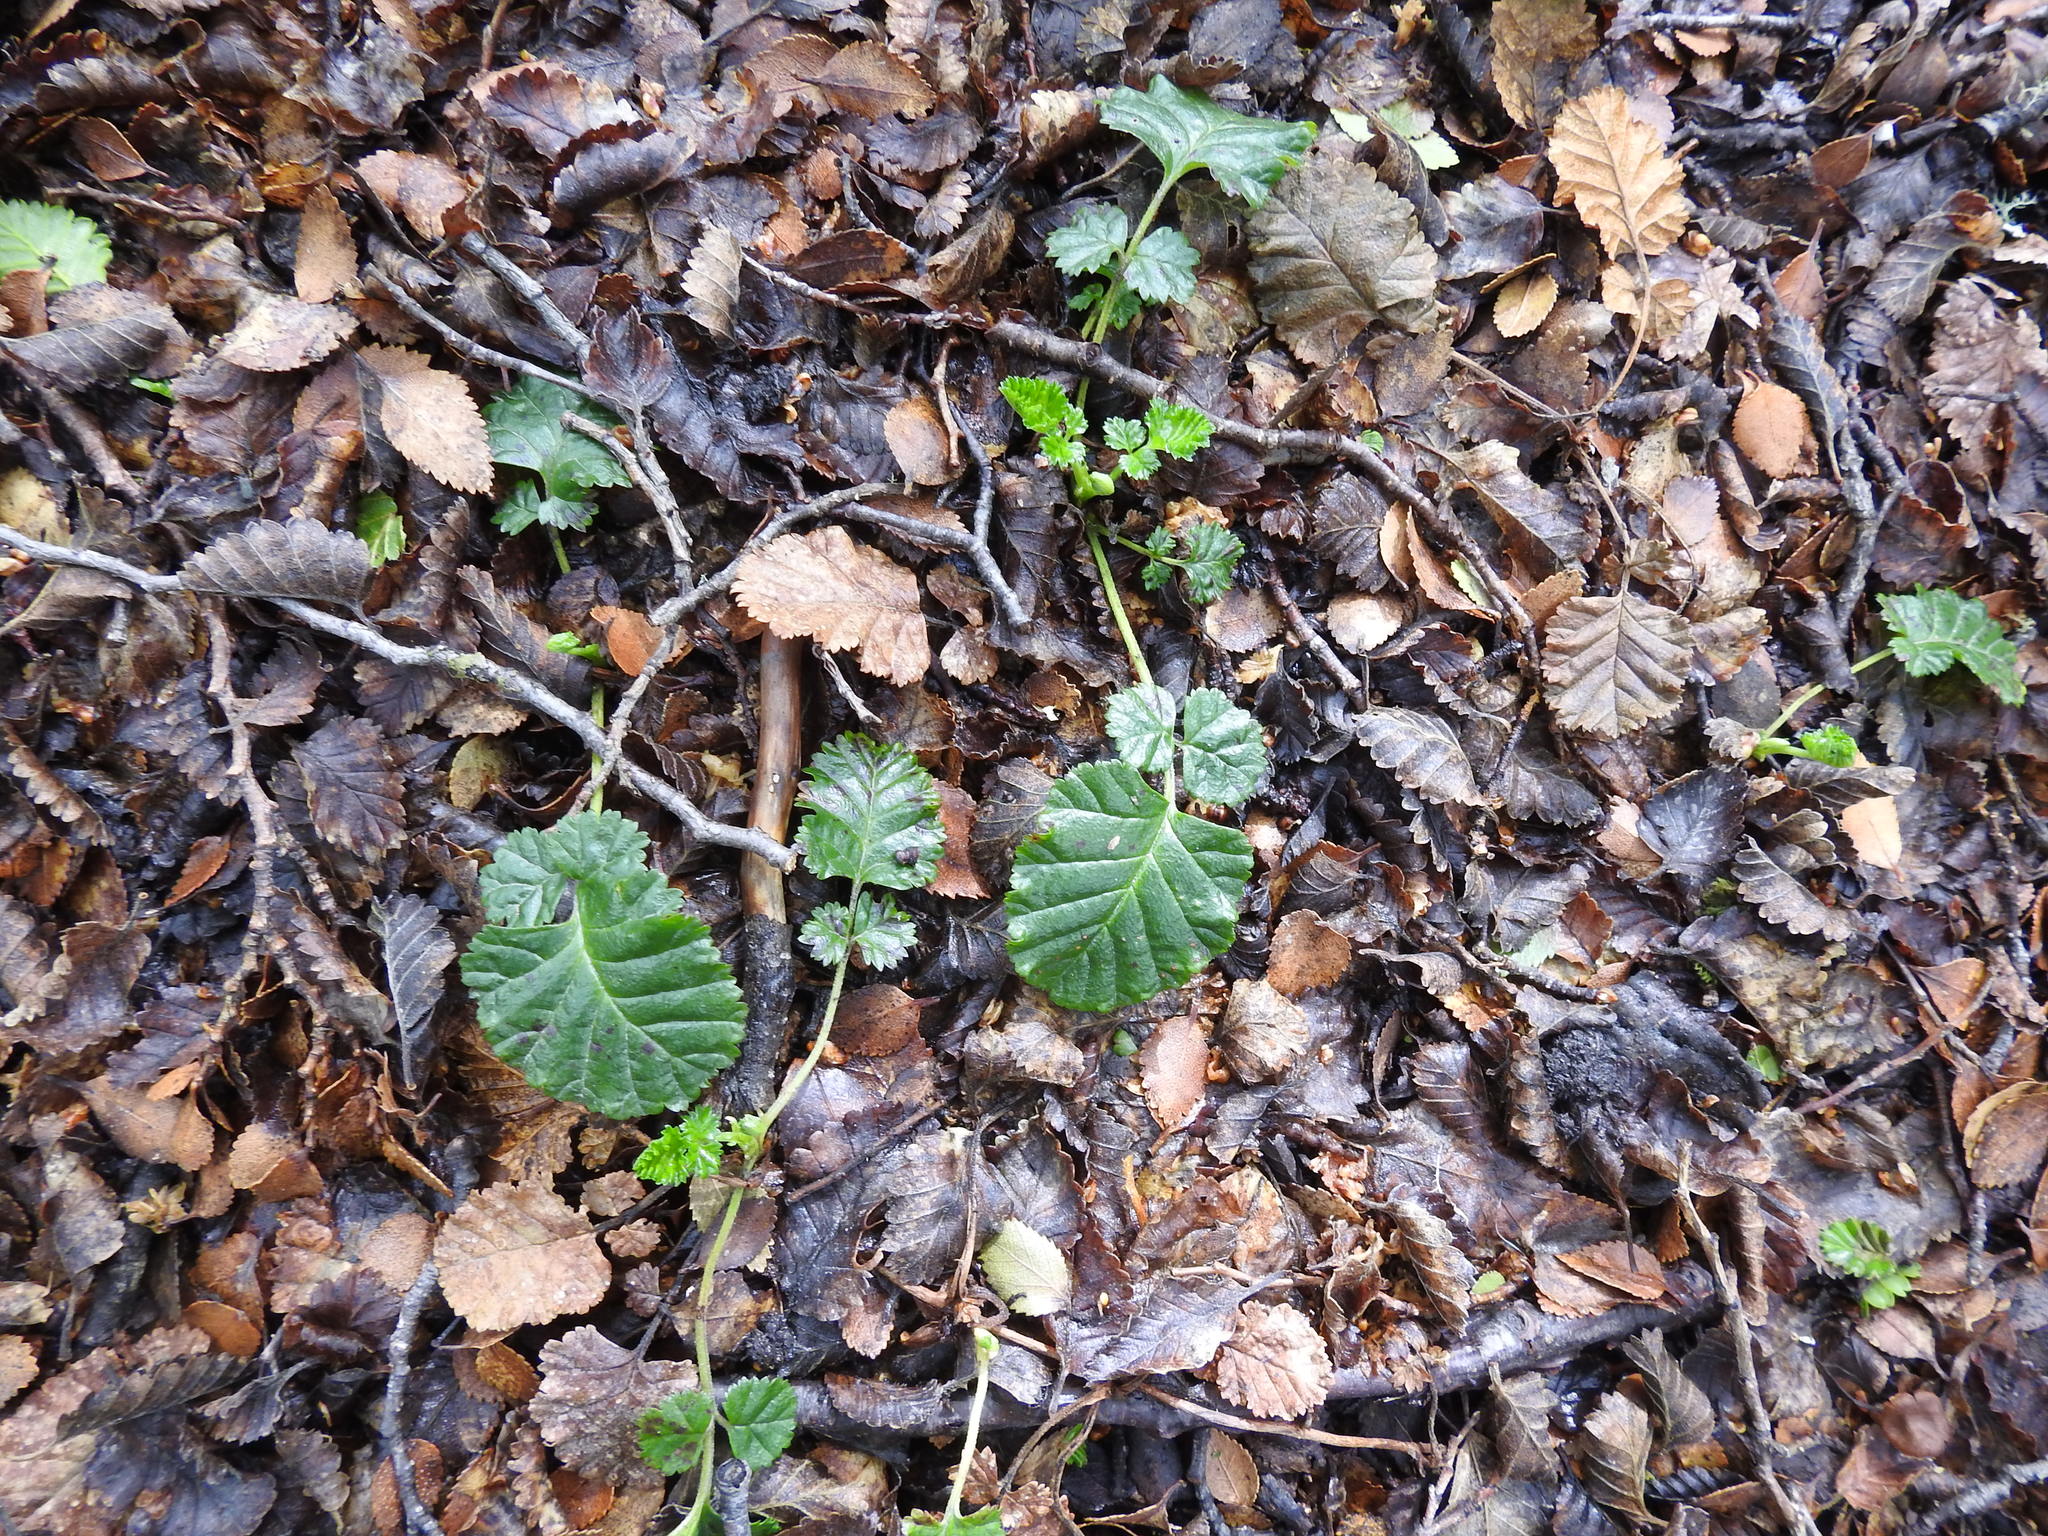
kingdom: Plantae
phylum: Tracheophyta
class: Magnoliopsida
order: Rosales
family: Rosaceae
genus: Rubus
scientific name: Rubus geoides
